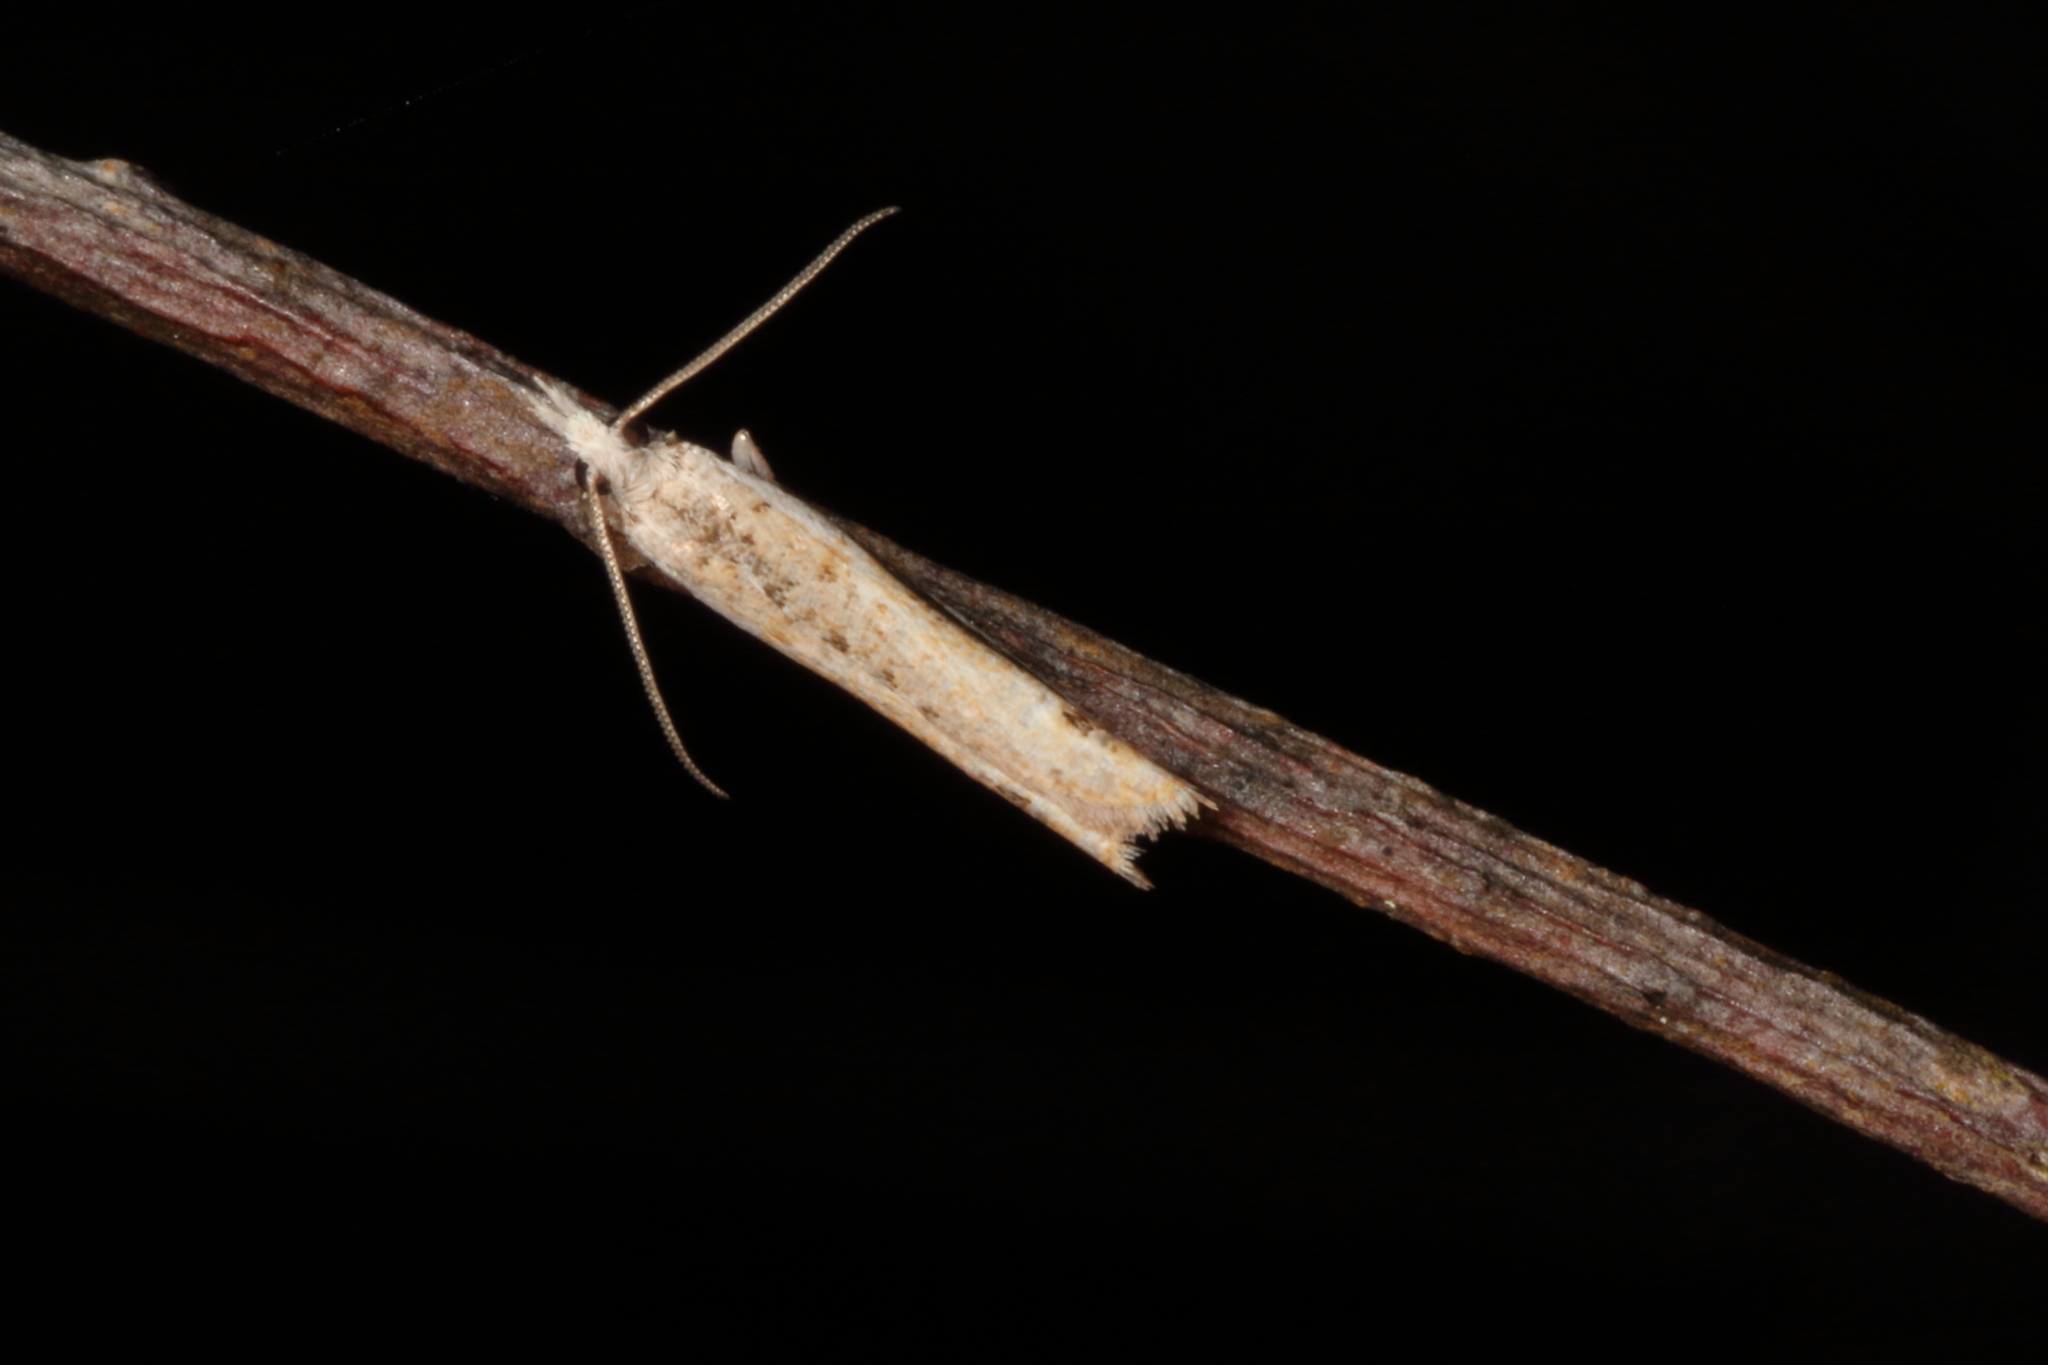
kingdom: Animalia
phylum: Arthropoda
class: Insecta
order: Lepidoptera
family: Tortricidae
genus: Holocola
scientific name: Holocola
